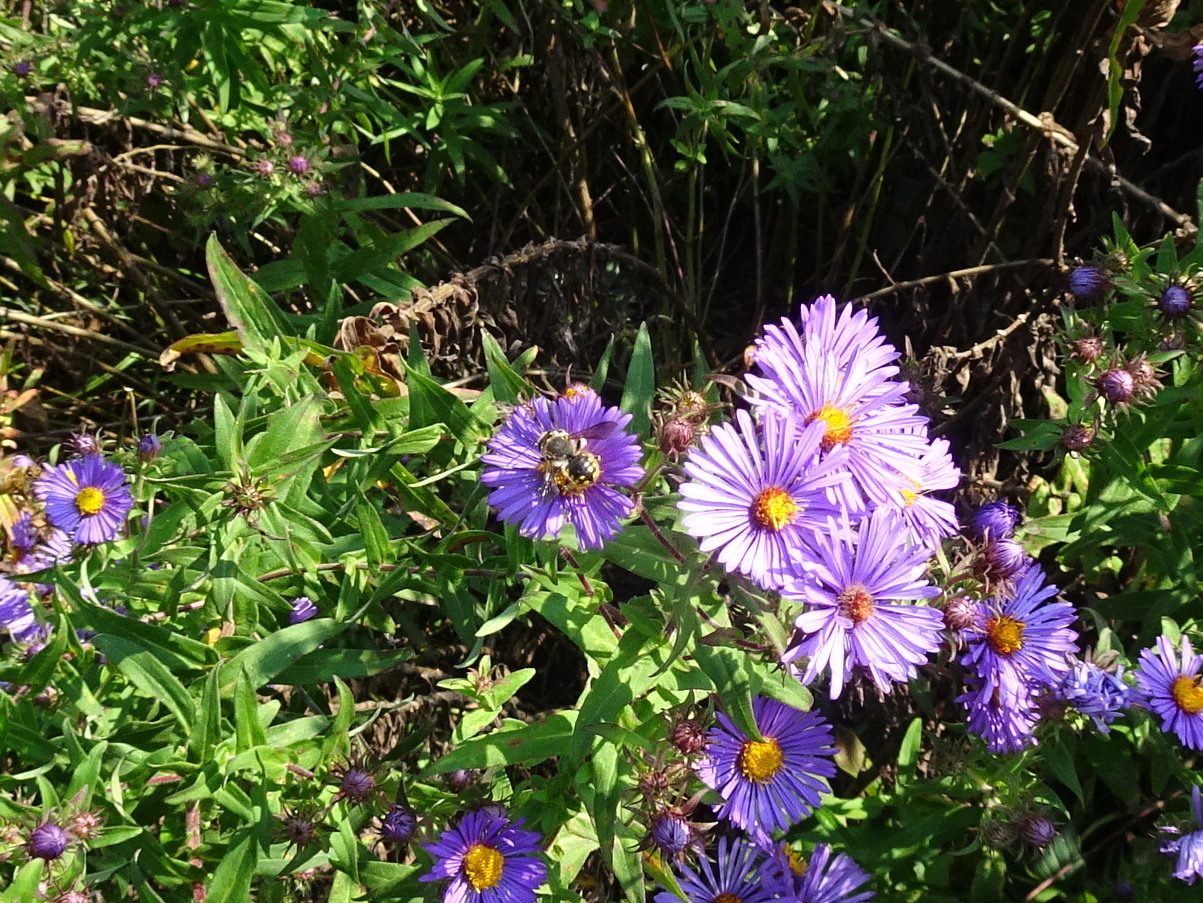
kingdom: Animalia
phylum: Arthropoda
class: Insecta
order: Hymenoptera
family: Megachilidae
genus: Anthidium
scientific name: Anthidium manicatum
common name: Wool carder bee
